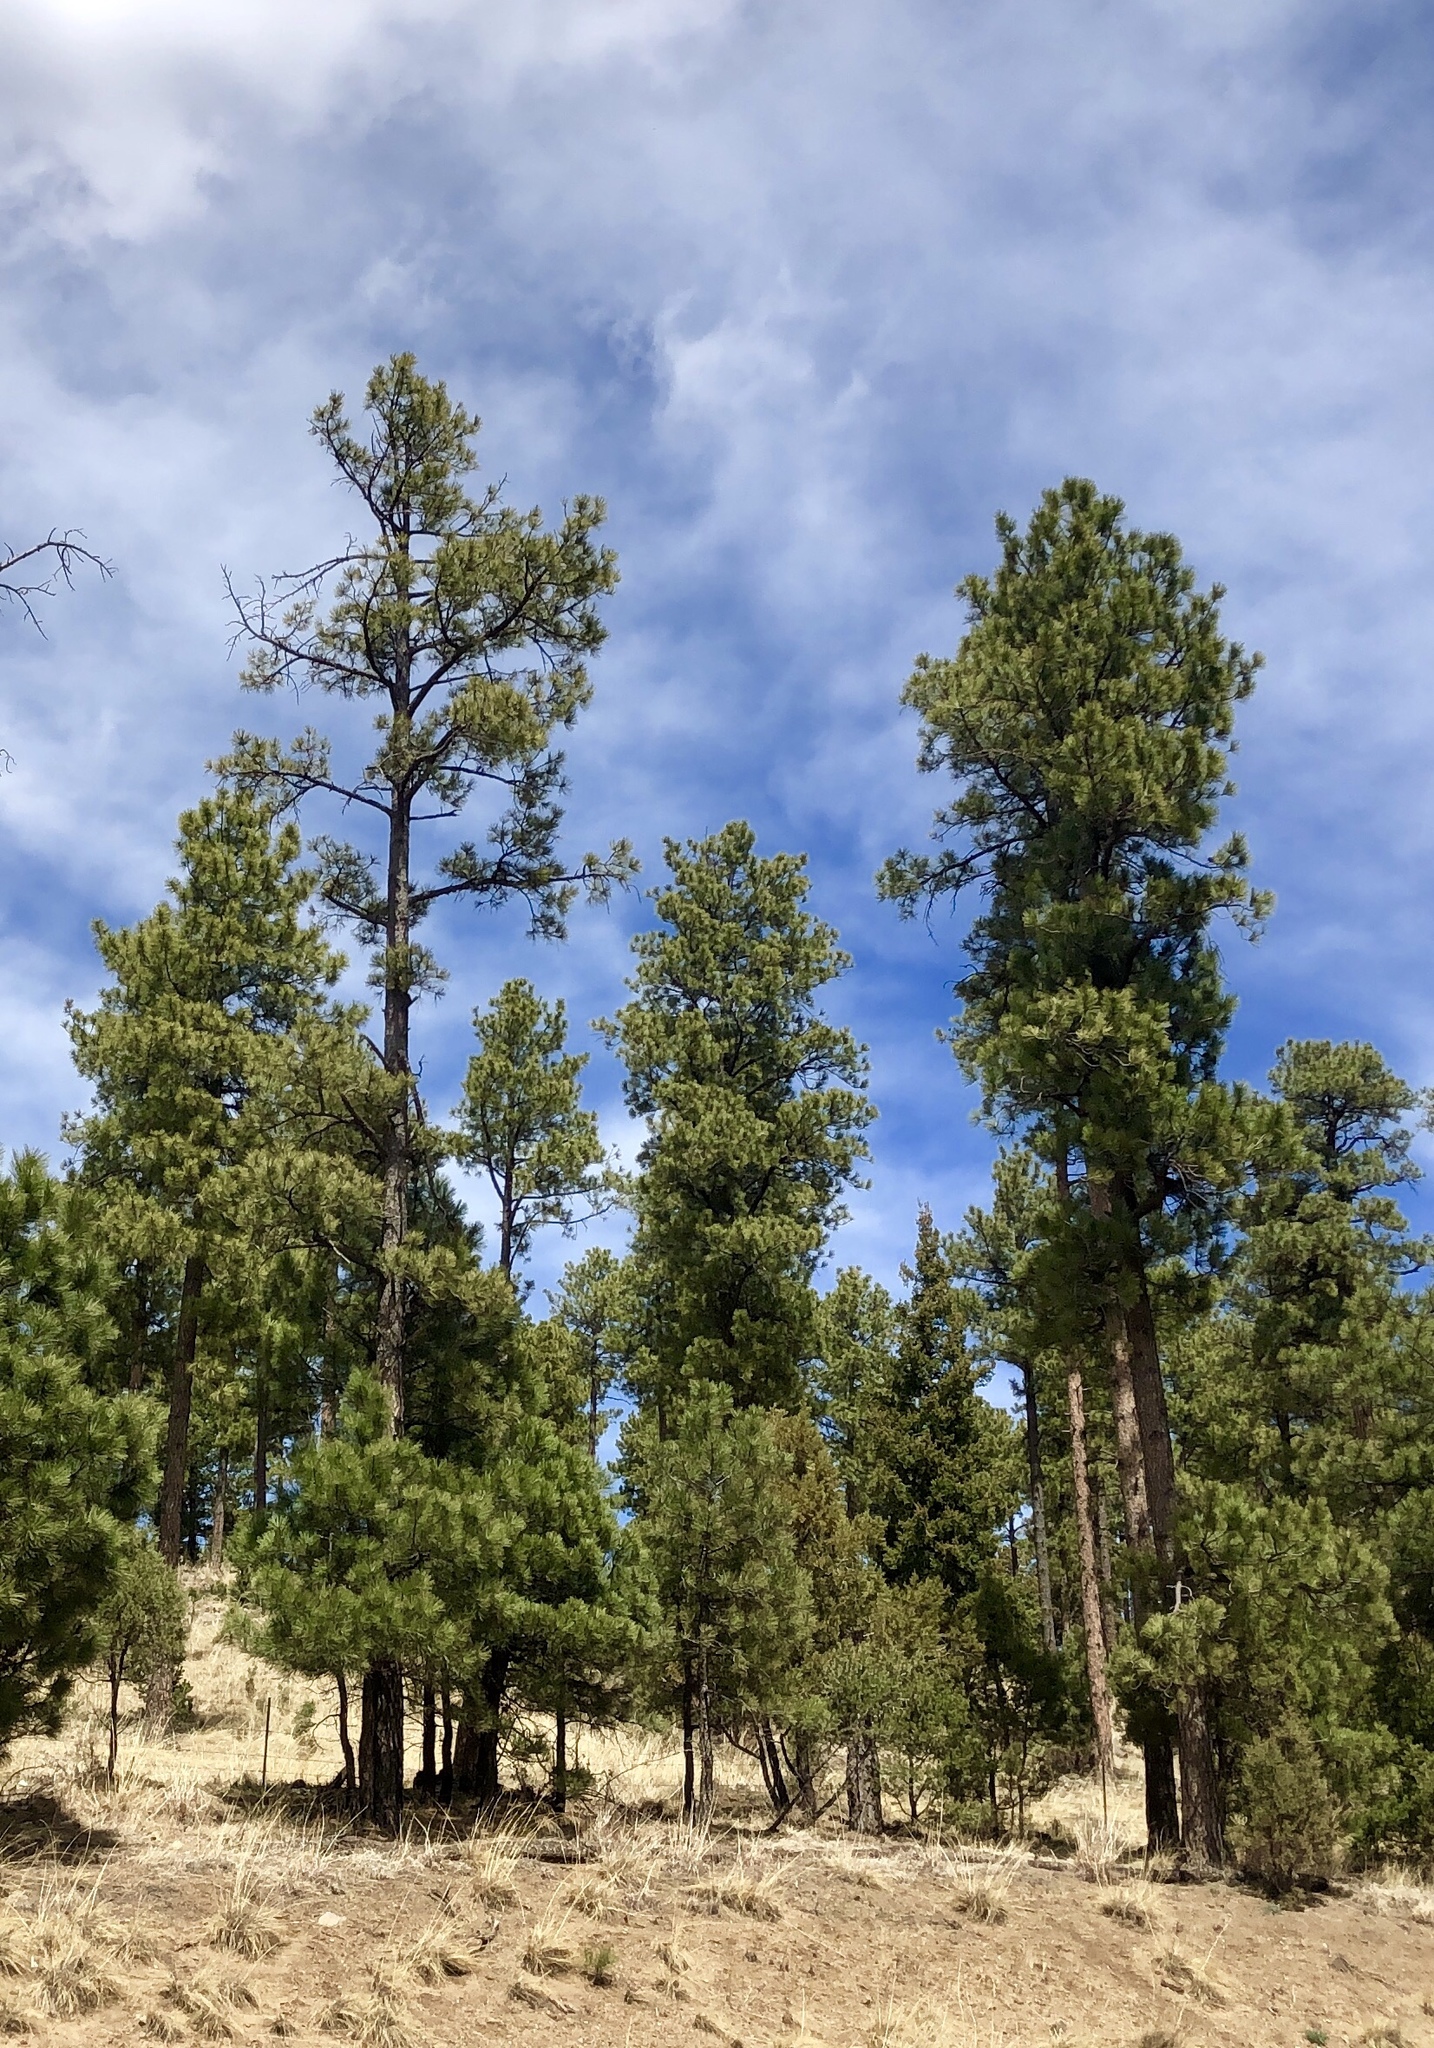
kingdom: Plantae
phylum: Tracheophyta
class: Pinopsida
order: Pinales
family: Pinaceae
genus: Pinus
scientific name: Pinus ponderosa
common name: Western yellow-pine
